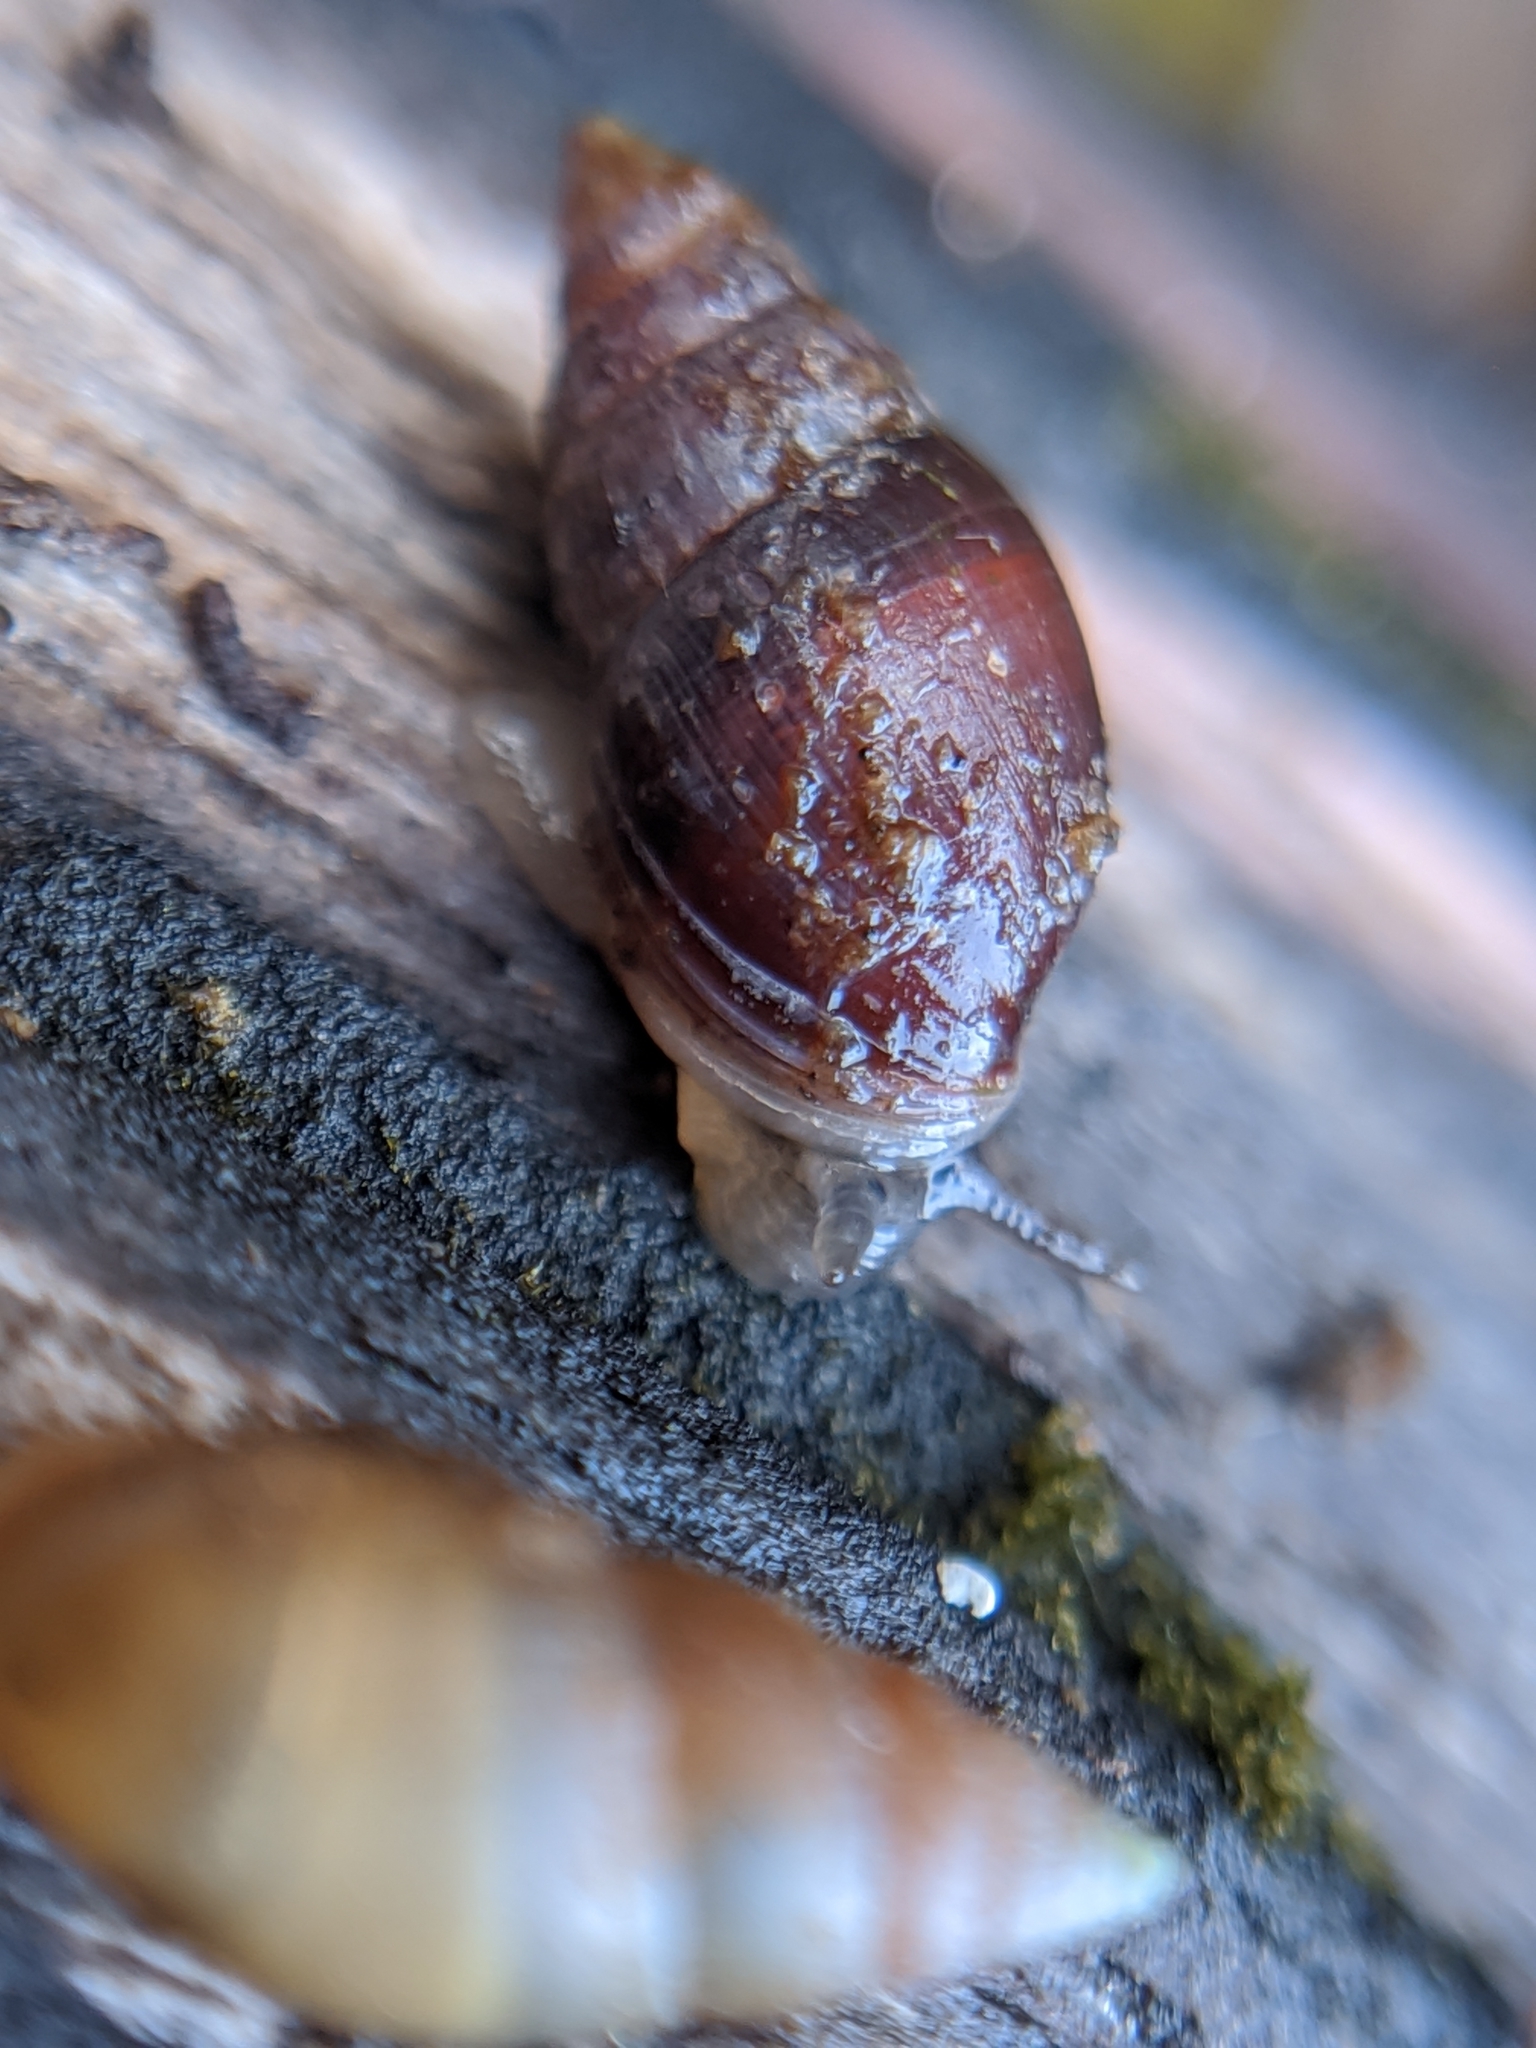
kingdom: Animalia
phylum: Mollusca
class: Gastropoda
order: Ellobiida
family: Ellobiidae
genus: Myosotella
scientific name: Myosotella myosotis
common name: Mouse-eared snail
